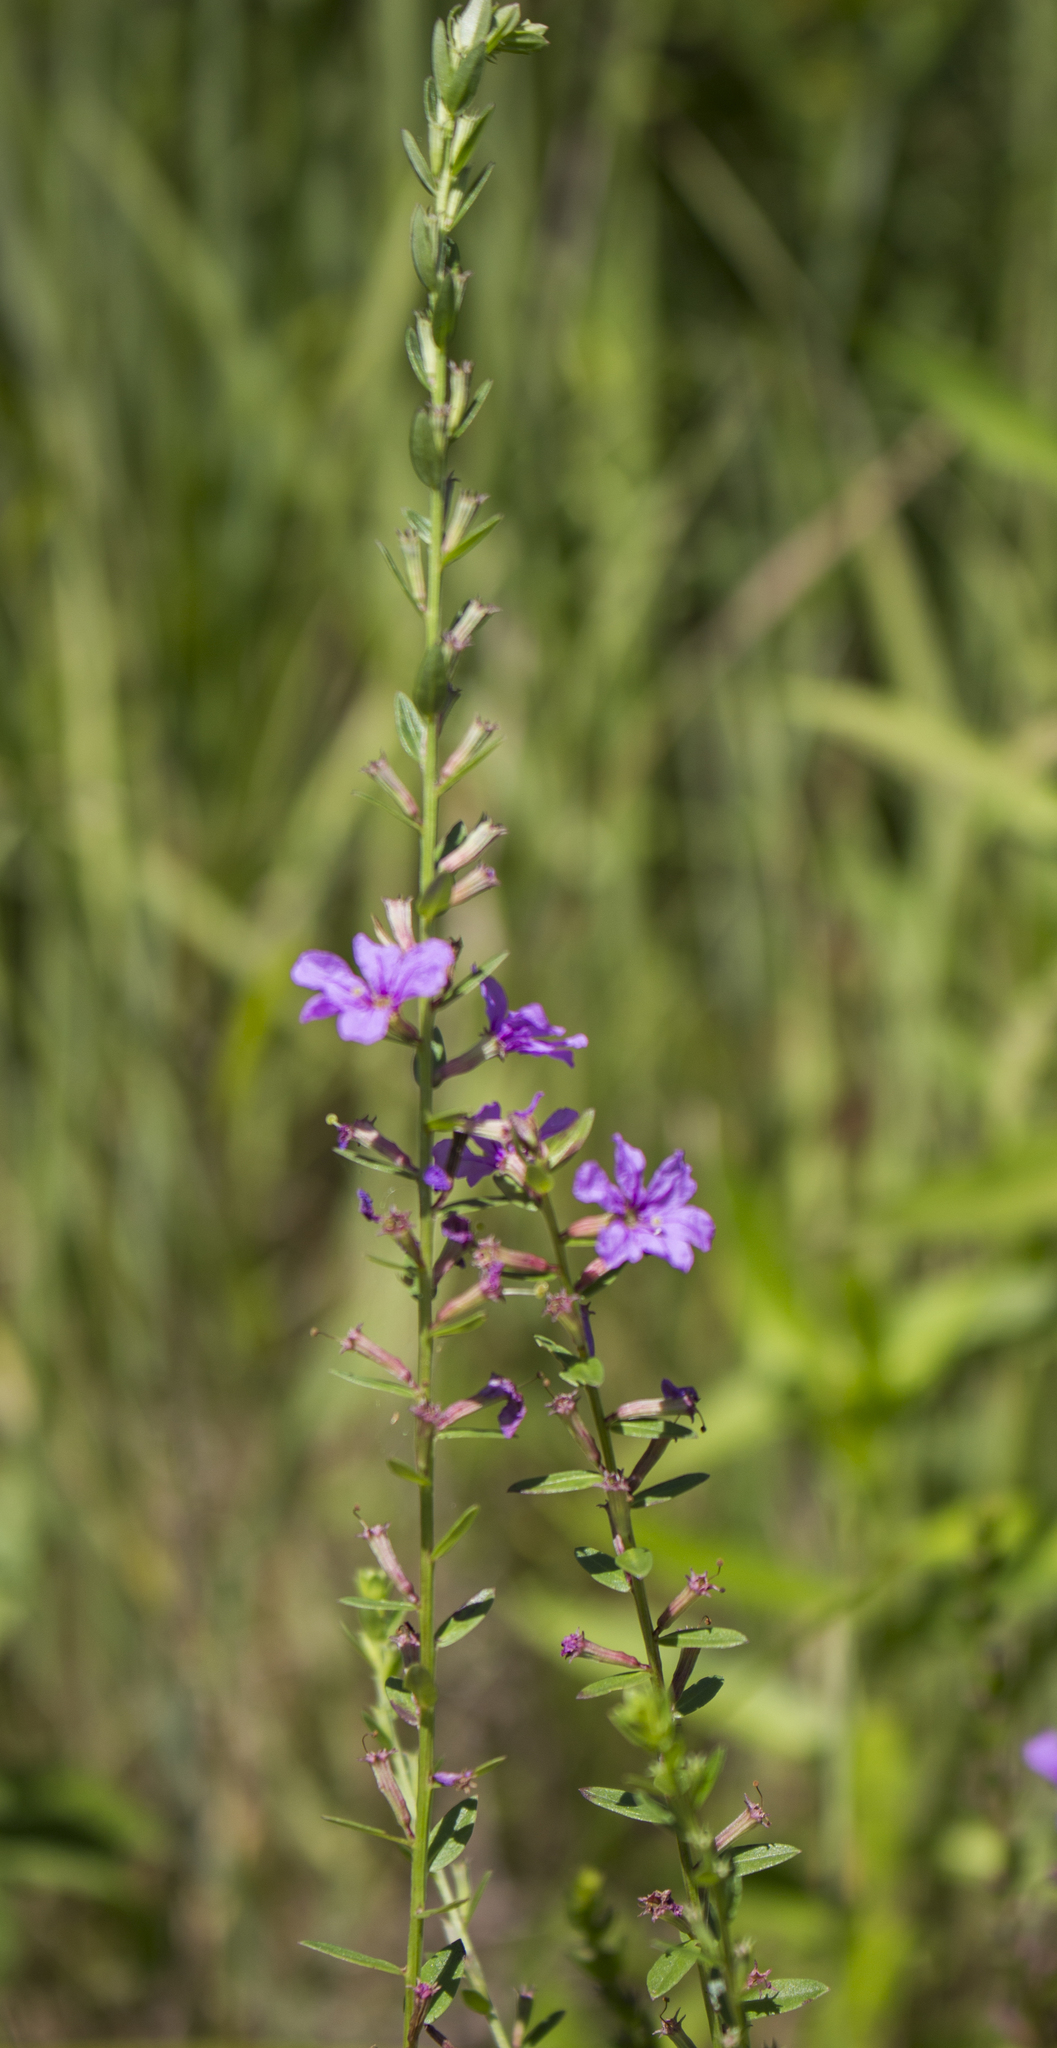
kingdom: Plantae
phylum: Tracheophyta
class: Magnoliopsida
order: Myrtales
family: Lythraceae
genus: Lythrum
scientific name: Lythrum alatum
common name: Winged loosestrife
